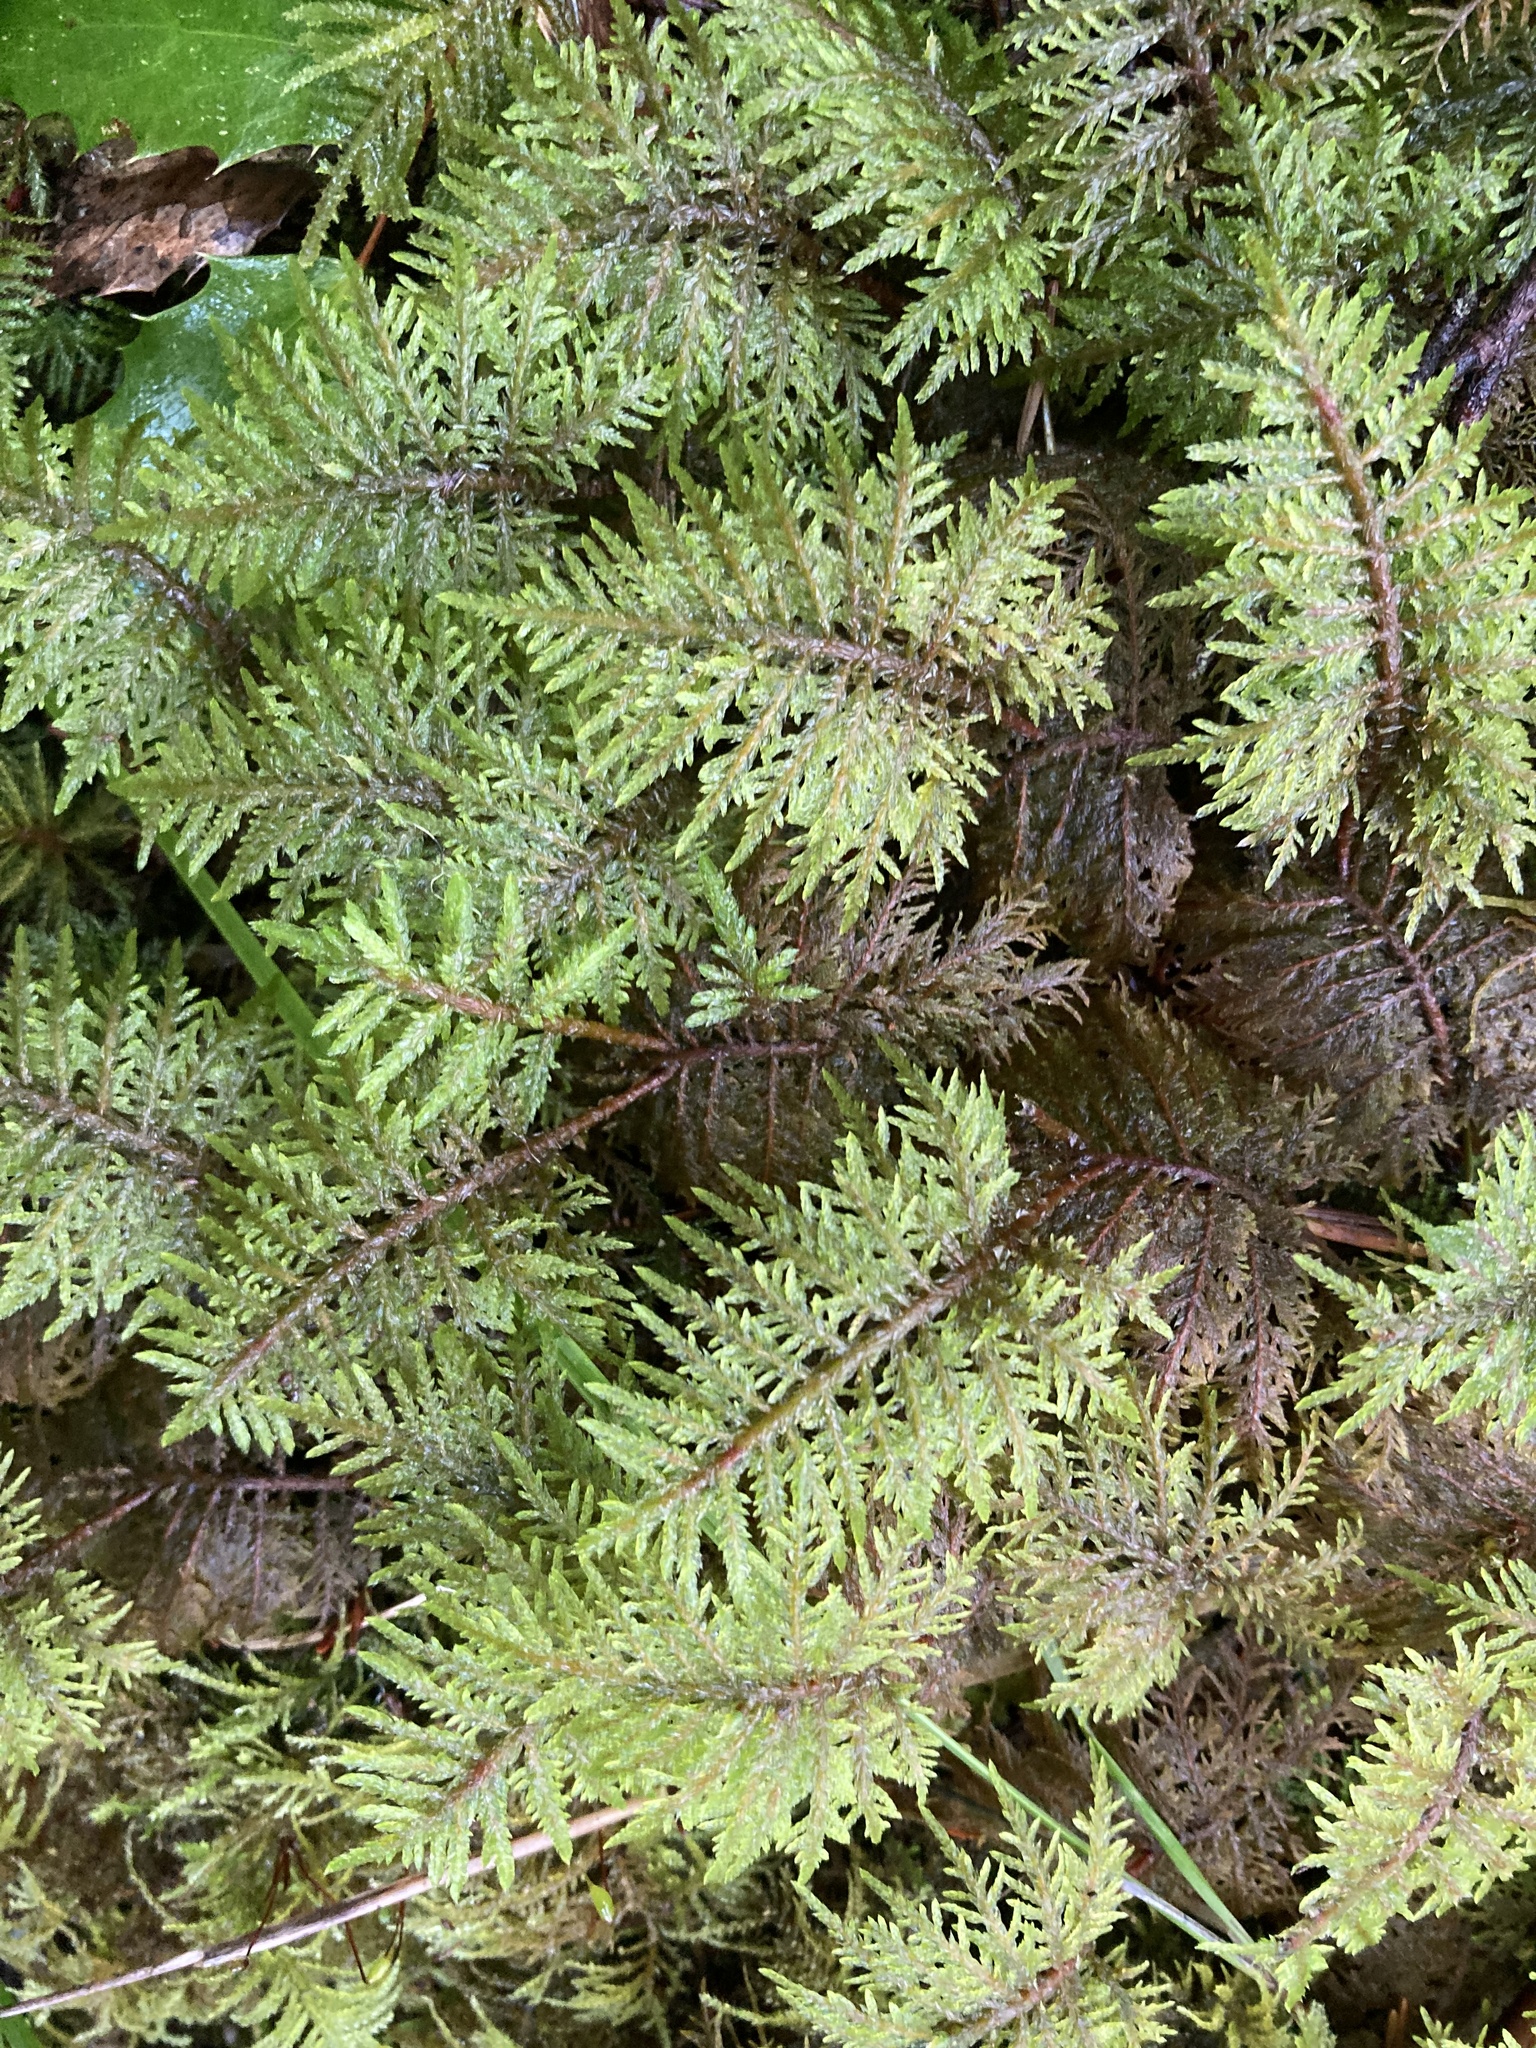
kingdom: Plantae
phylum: Bryophyta
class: Bryopsida
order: Hypnales
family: Hylocomiaceae
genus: Hylocomium
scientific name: Hylocomium splendens
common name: Stairstep moss
